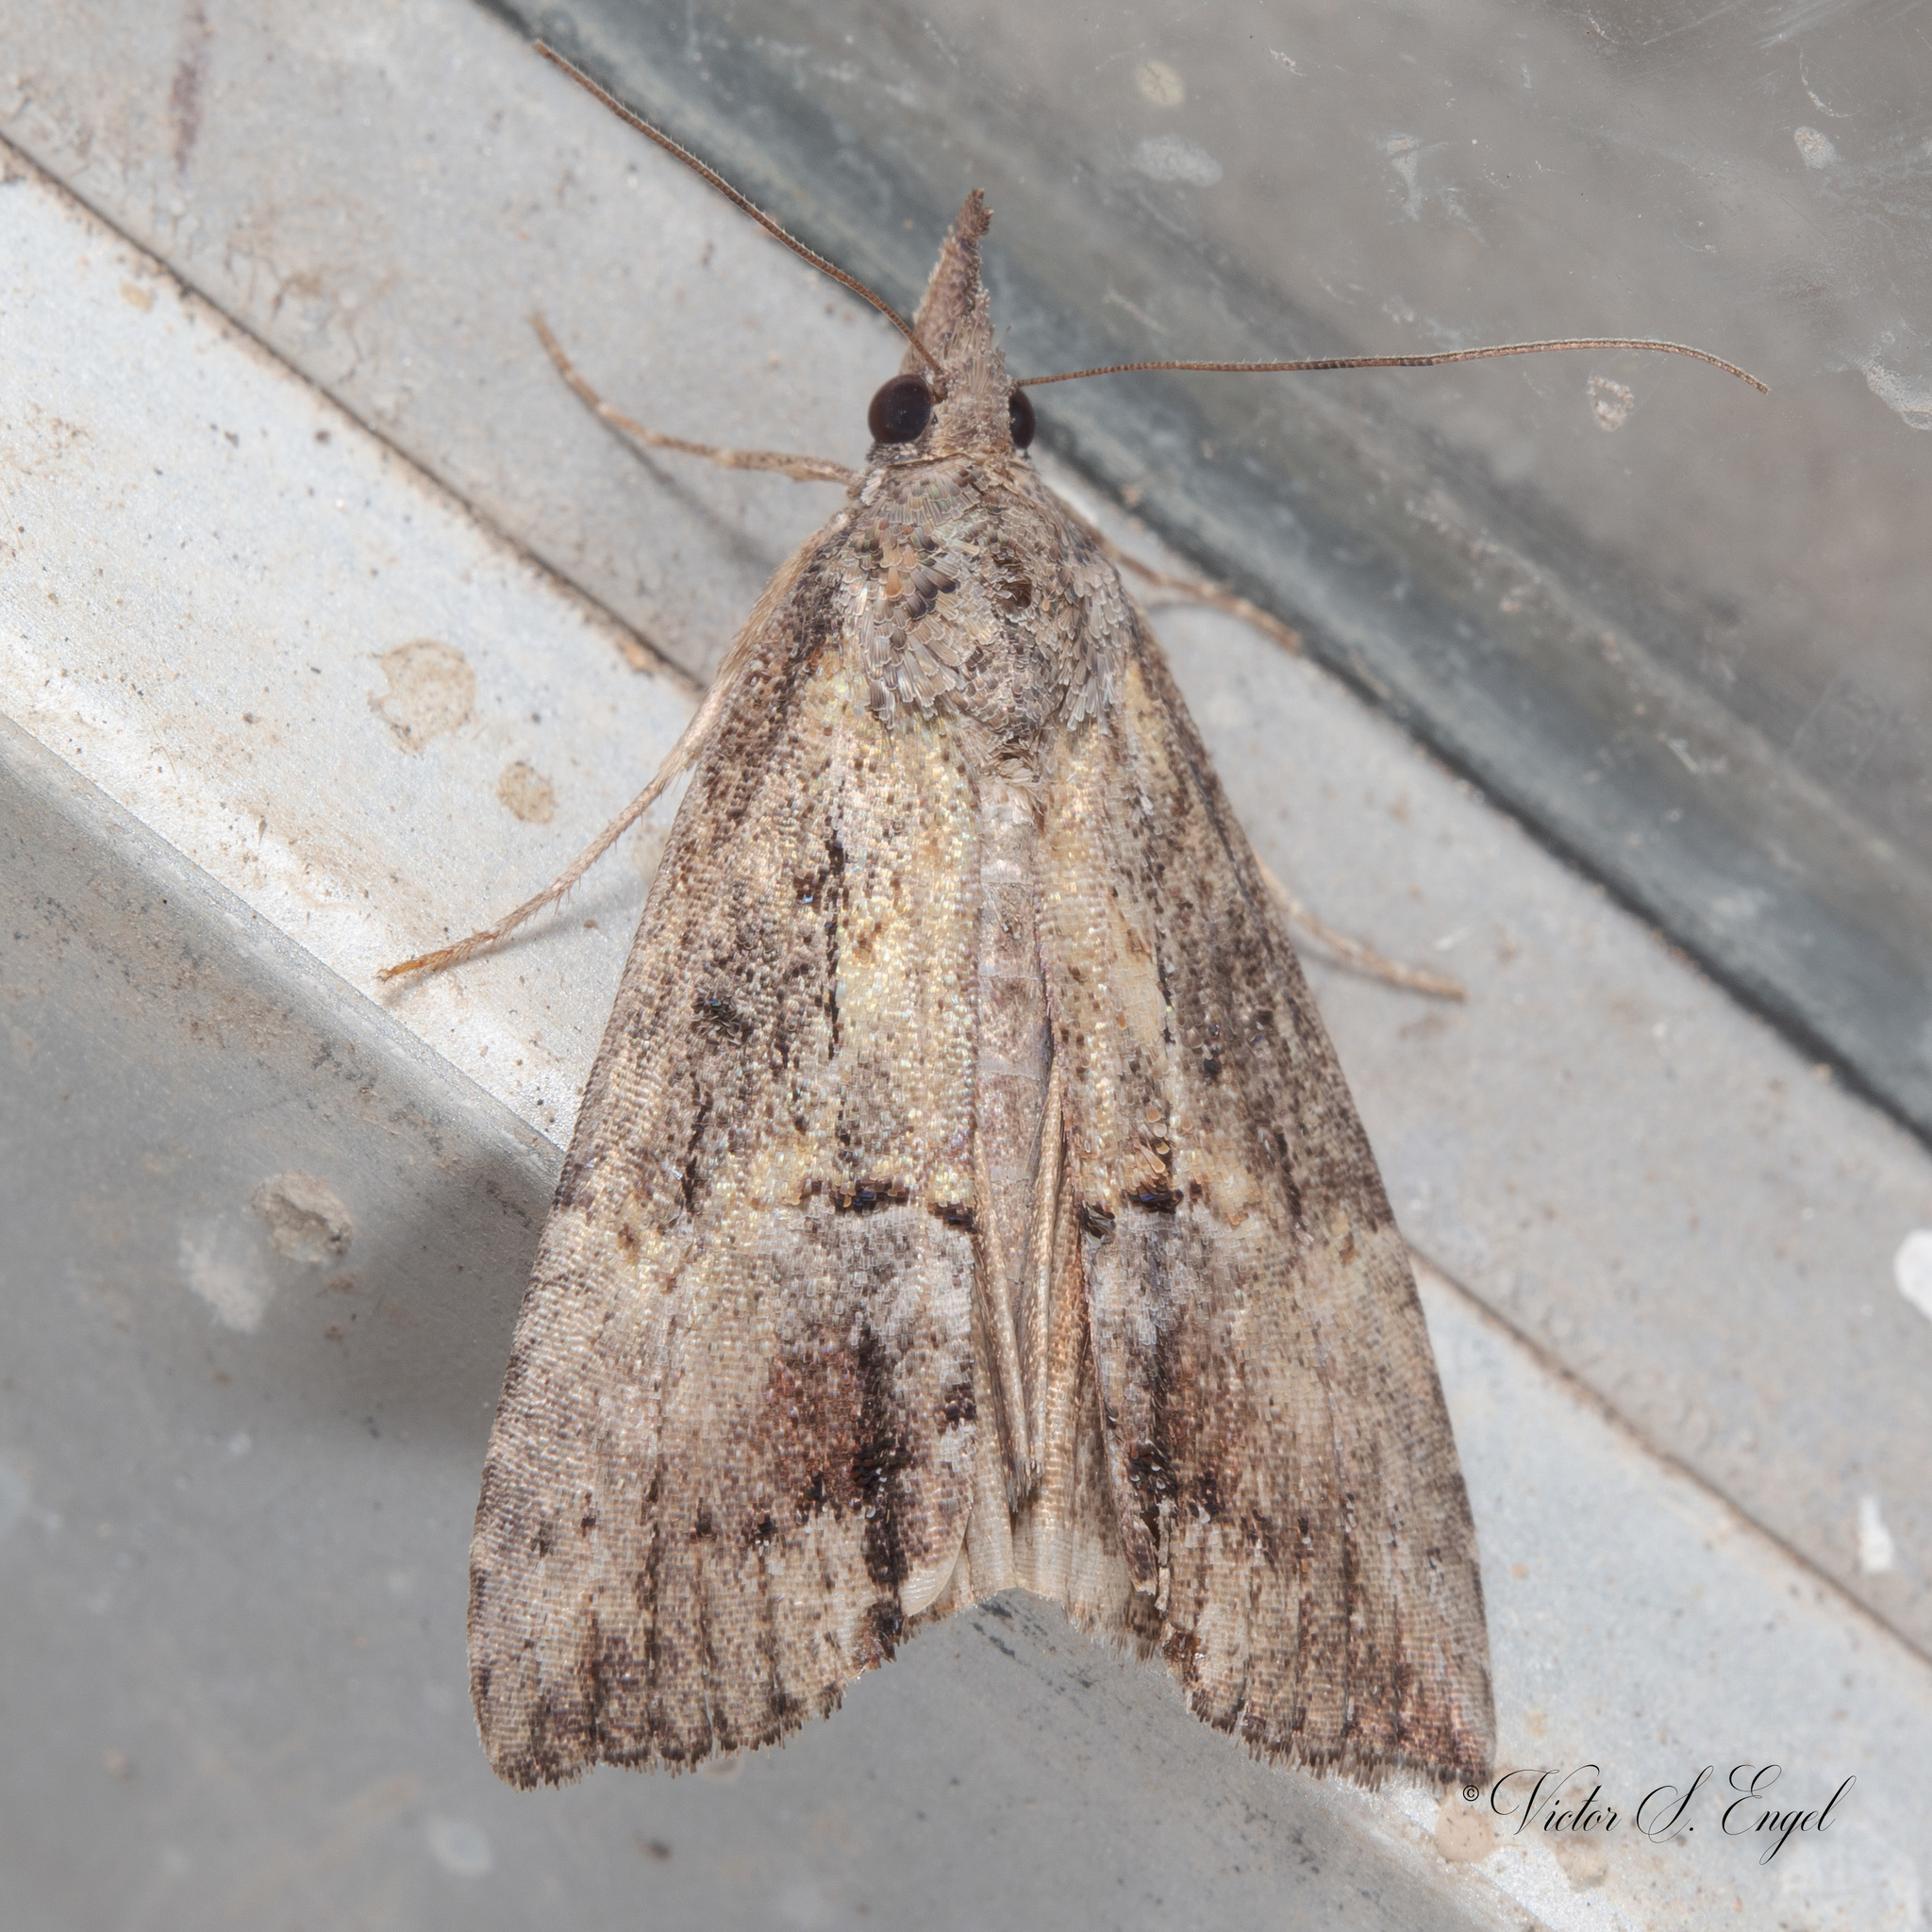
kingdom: Animalia
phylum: Arthropoda
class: Insecta
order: Lepidoptera
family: Erebidae
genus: Hypena
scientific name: Hypena scabra
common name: Green cloverworm
